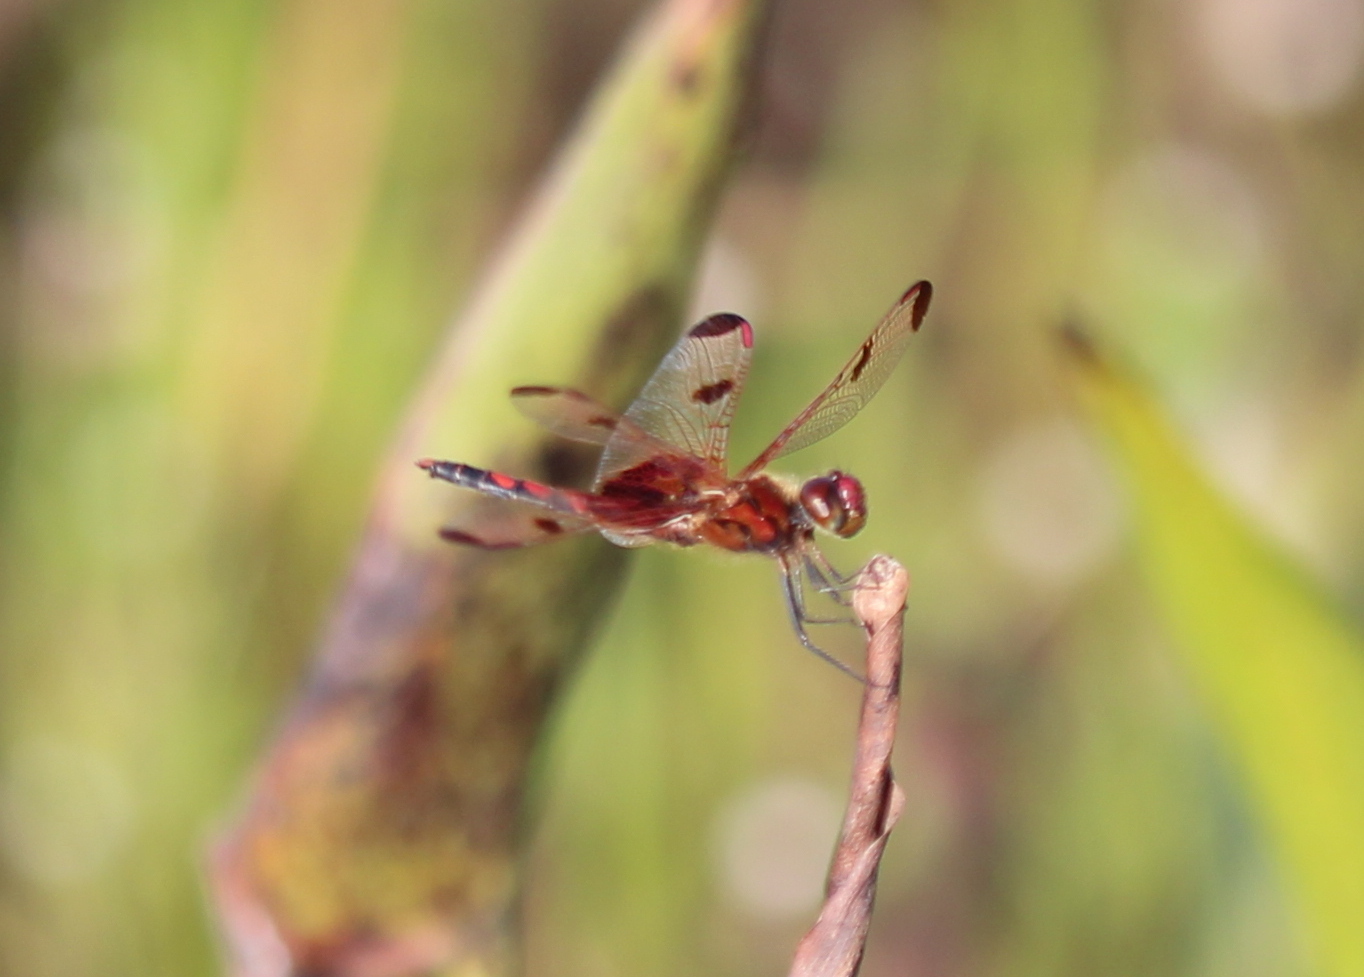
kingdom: Animalia
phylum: Arthropoda
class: Insecta
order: Odonata
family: Libellulidae
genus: Celithemis
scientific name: Celithemis elisa
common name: Calico pennant
